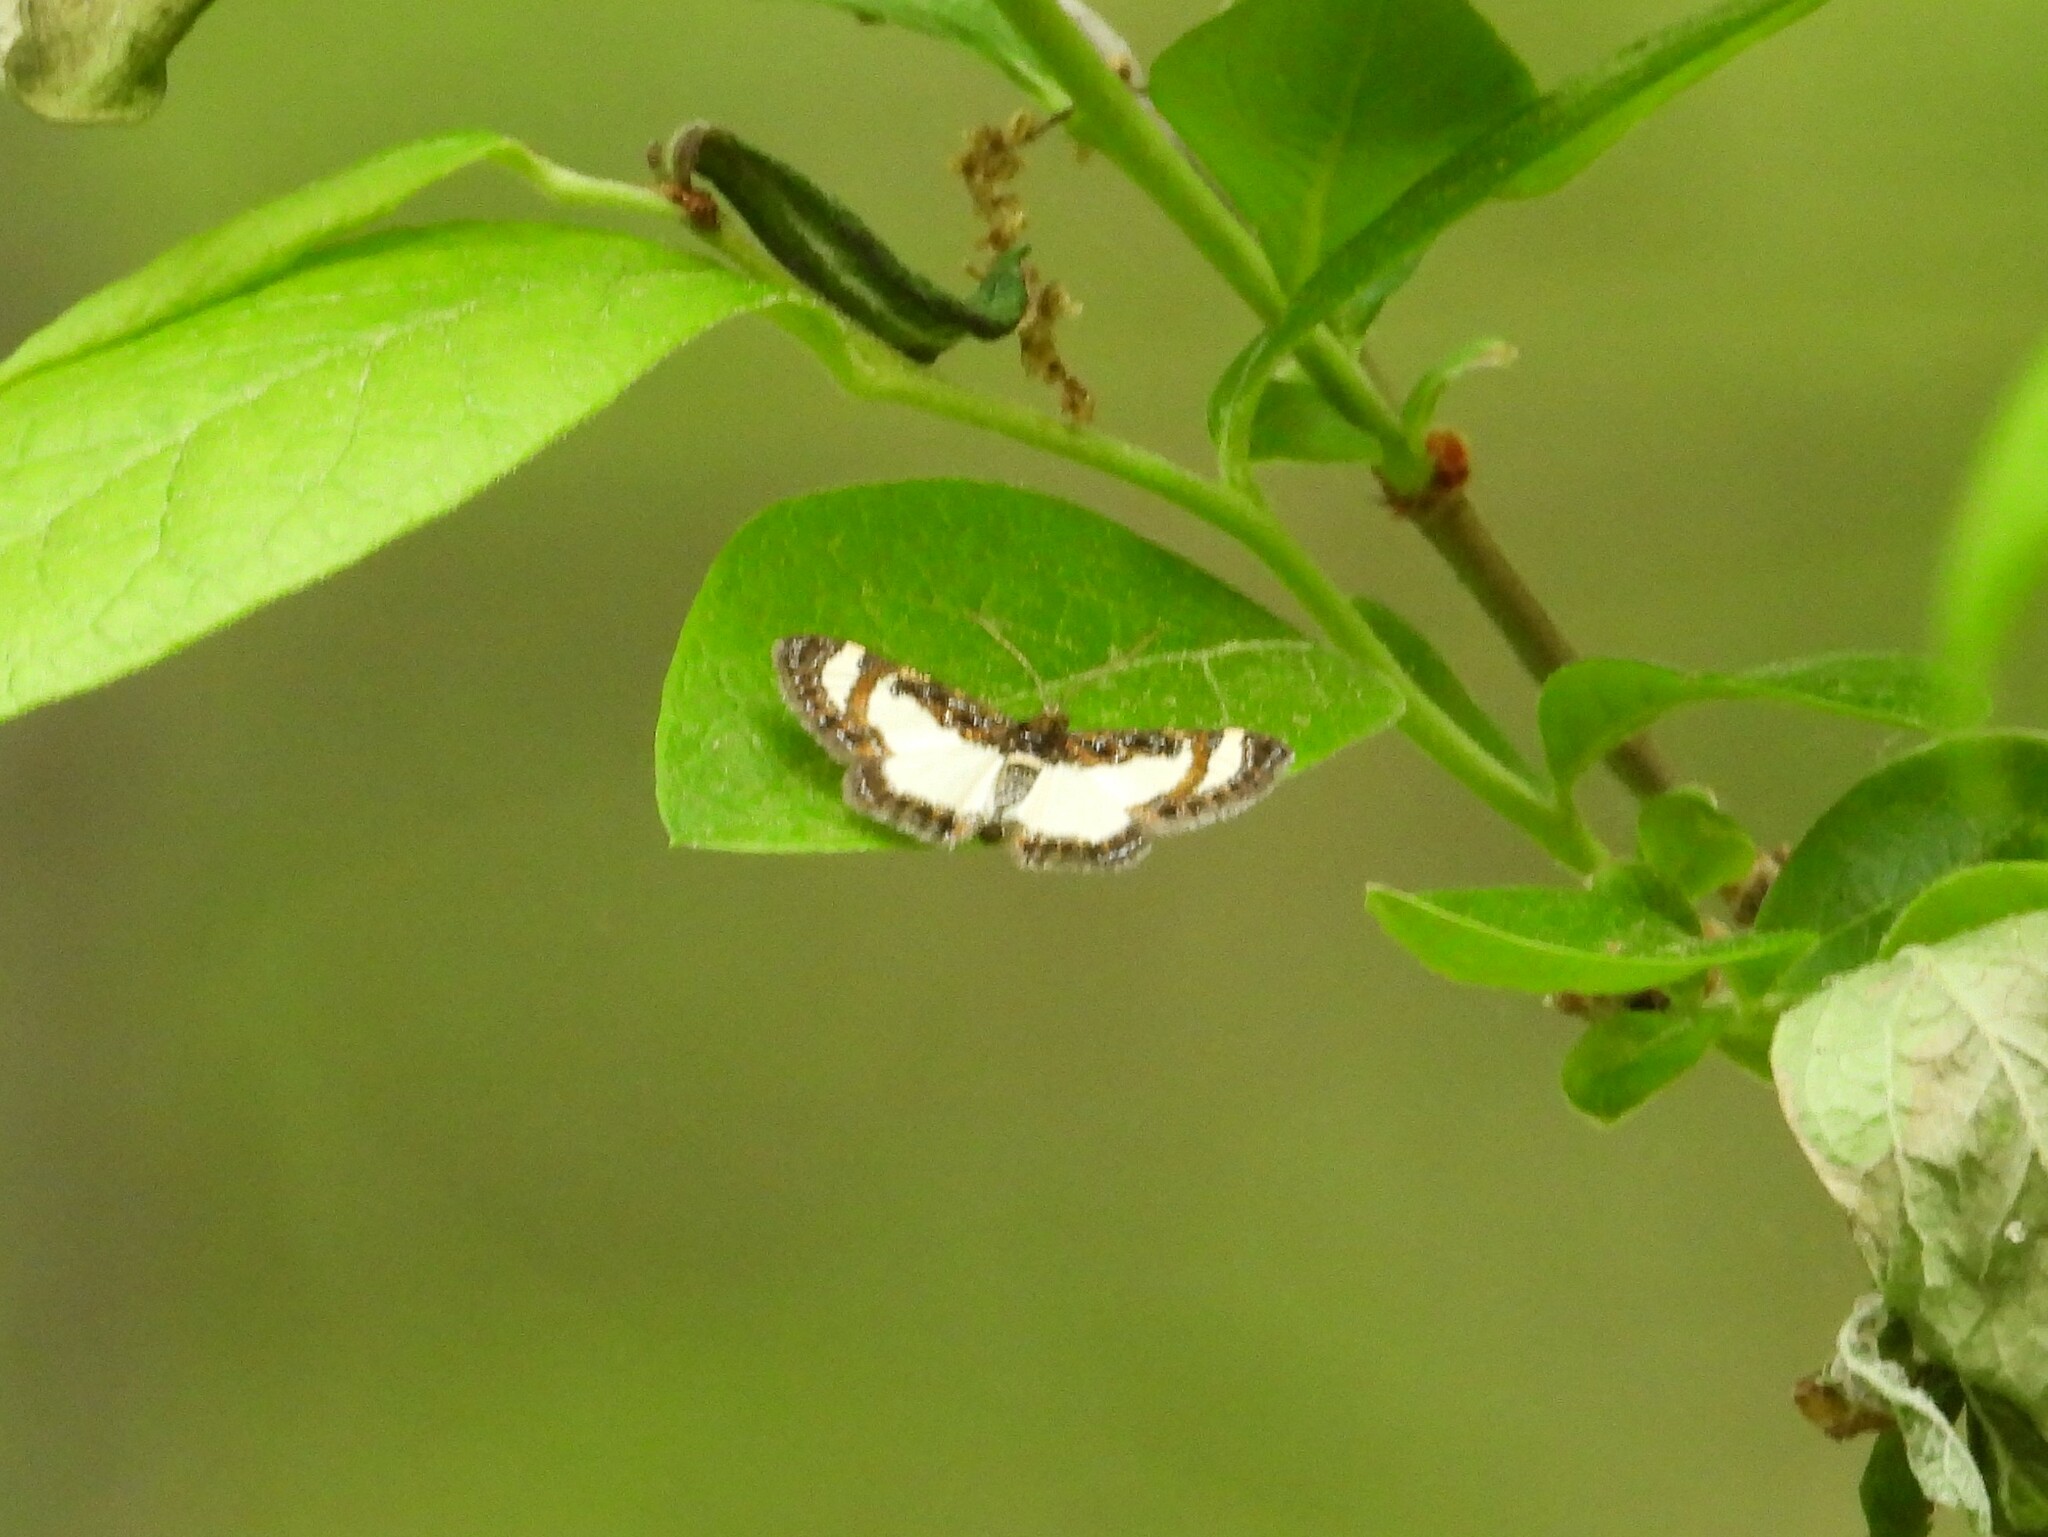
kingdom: Animalia
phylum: Arthropoda
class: Insecta
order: Lepidoptera
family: Geometridae
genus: Heliomata
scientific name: Heliomata cycladata
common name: Common spring moth
